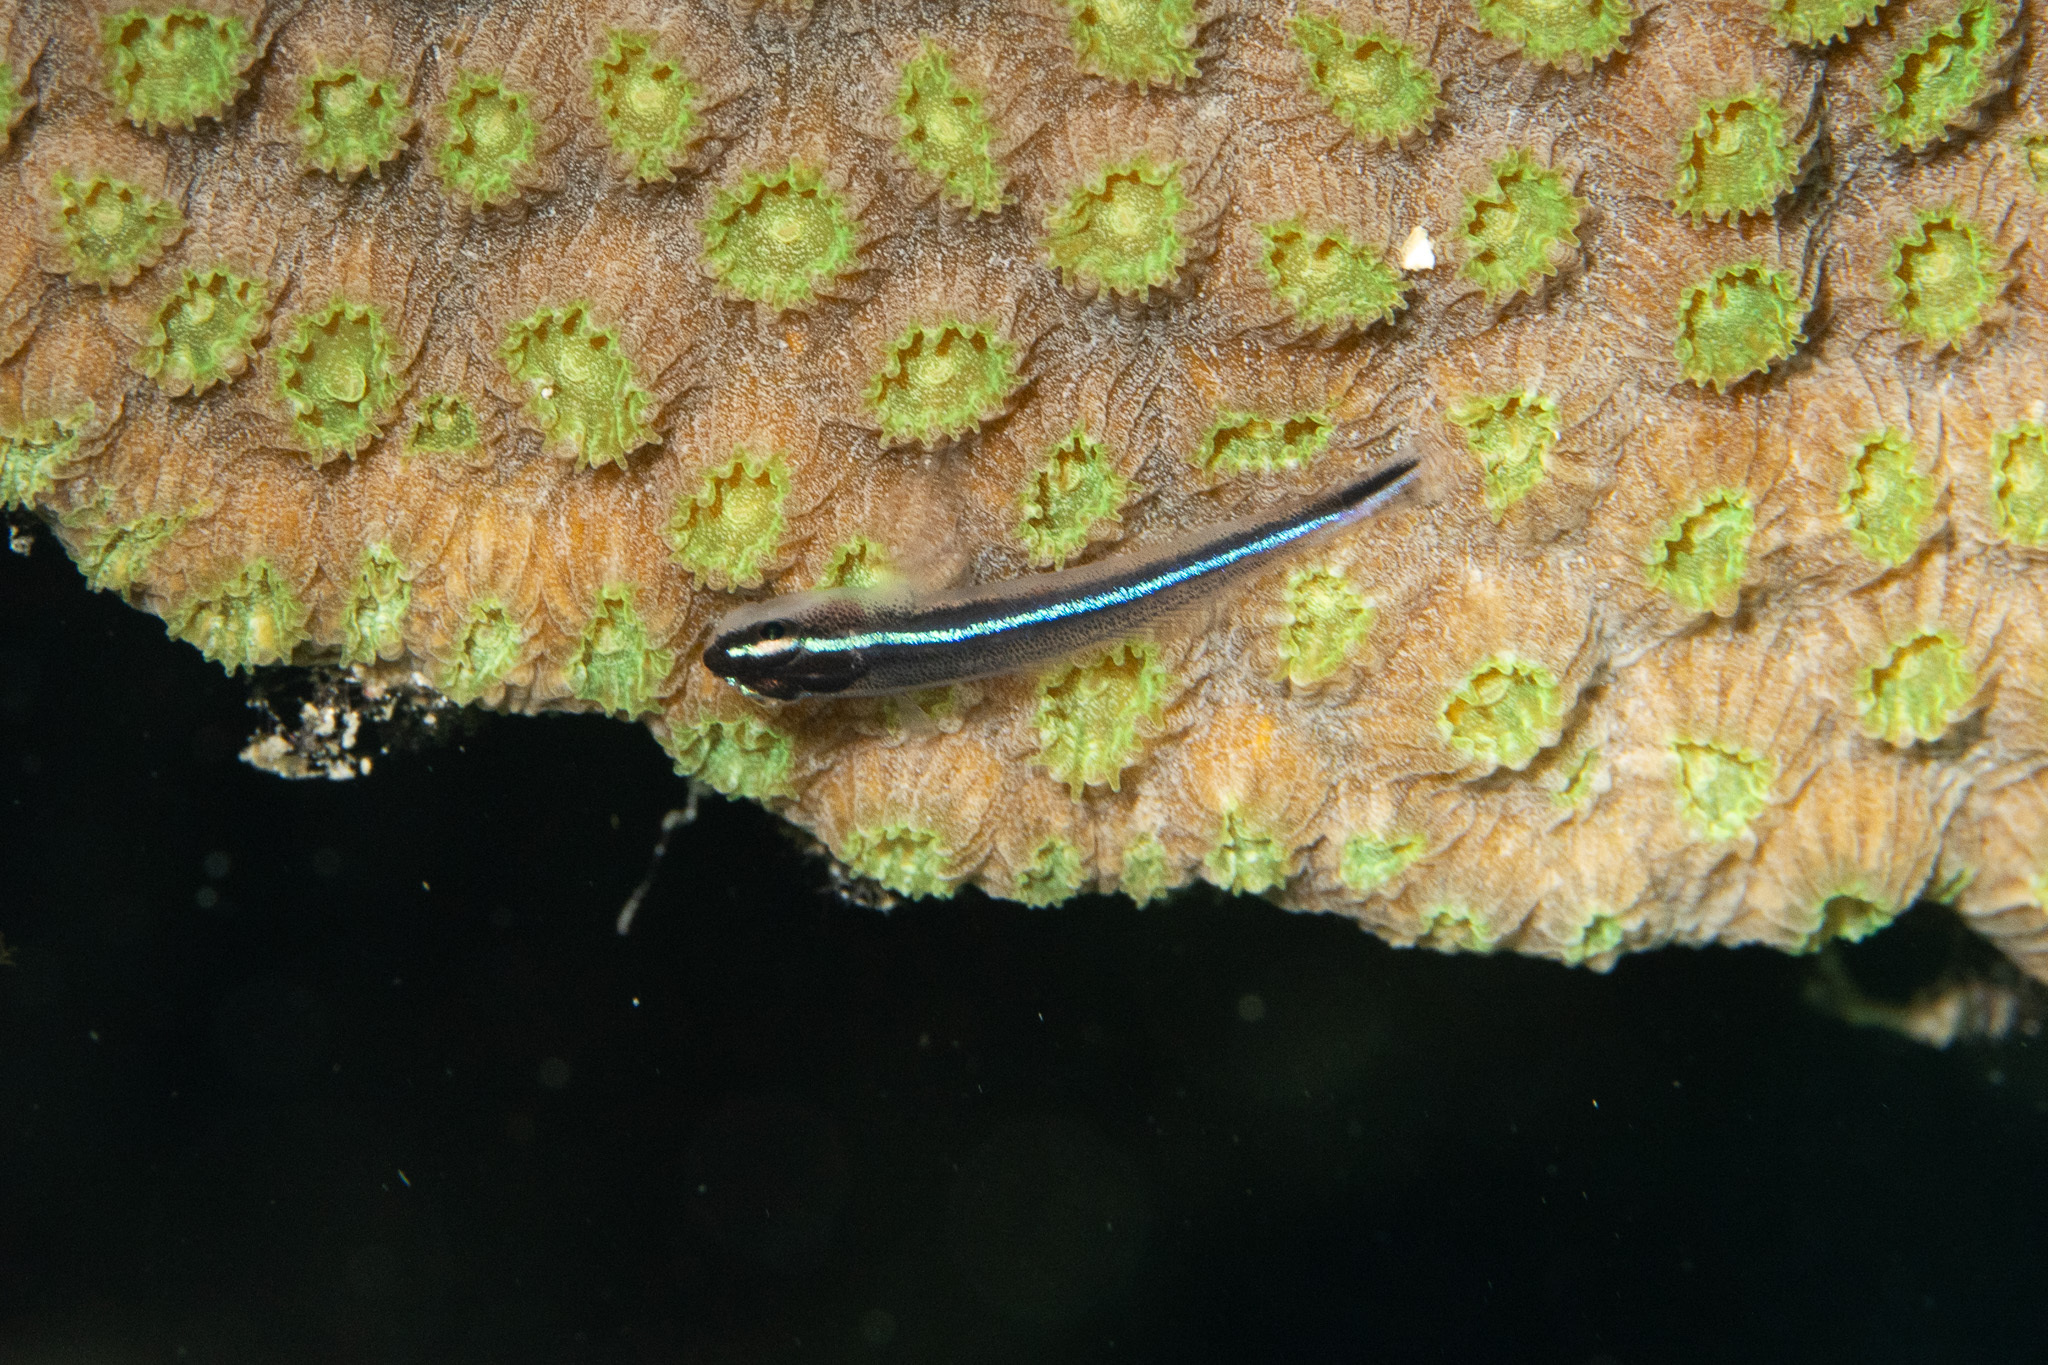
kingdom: Animalia
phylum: Chordata
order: Perciformes
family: Gobiidae
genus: Elacatinus
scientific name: Elacatinus lobeli
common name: Caribbean neon goby
